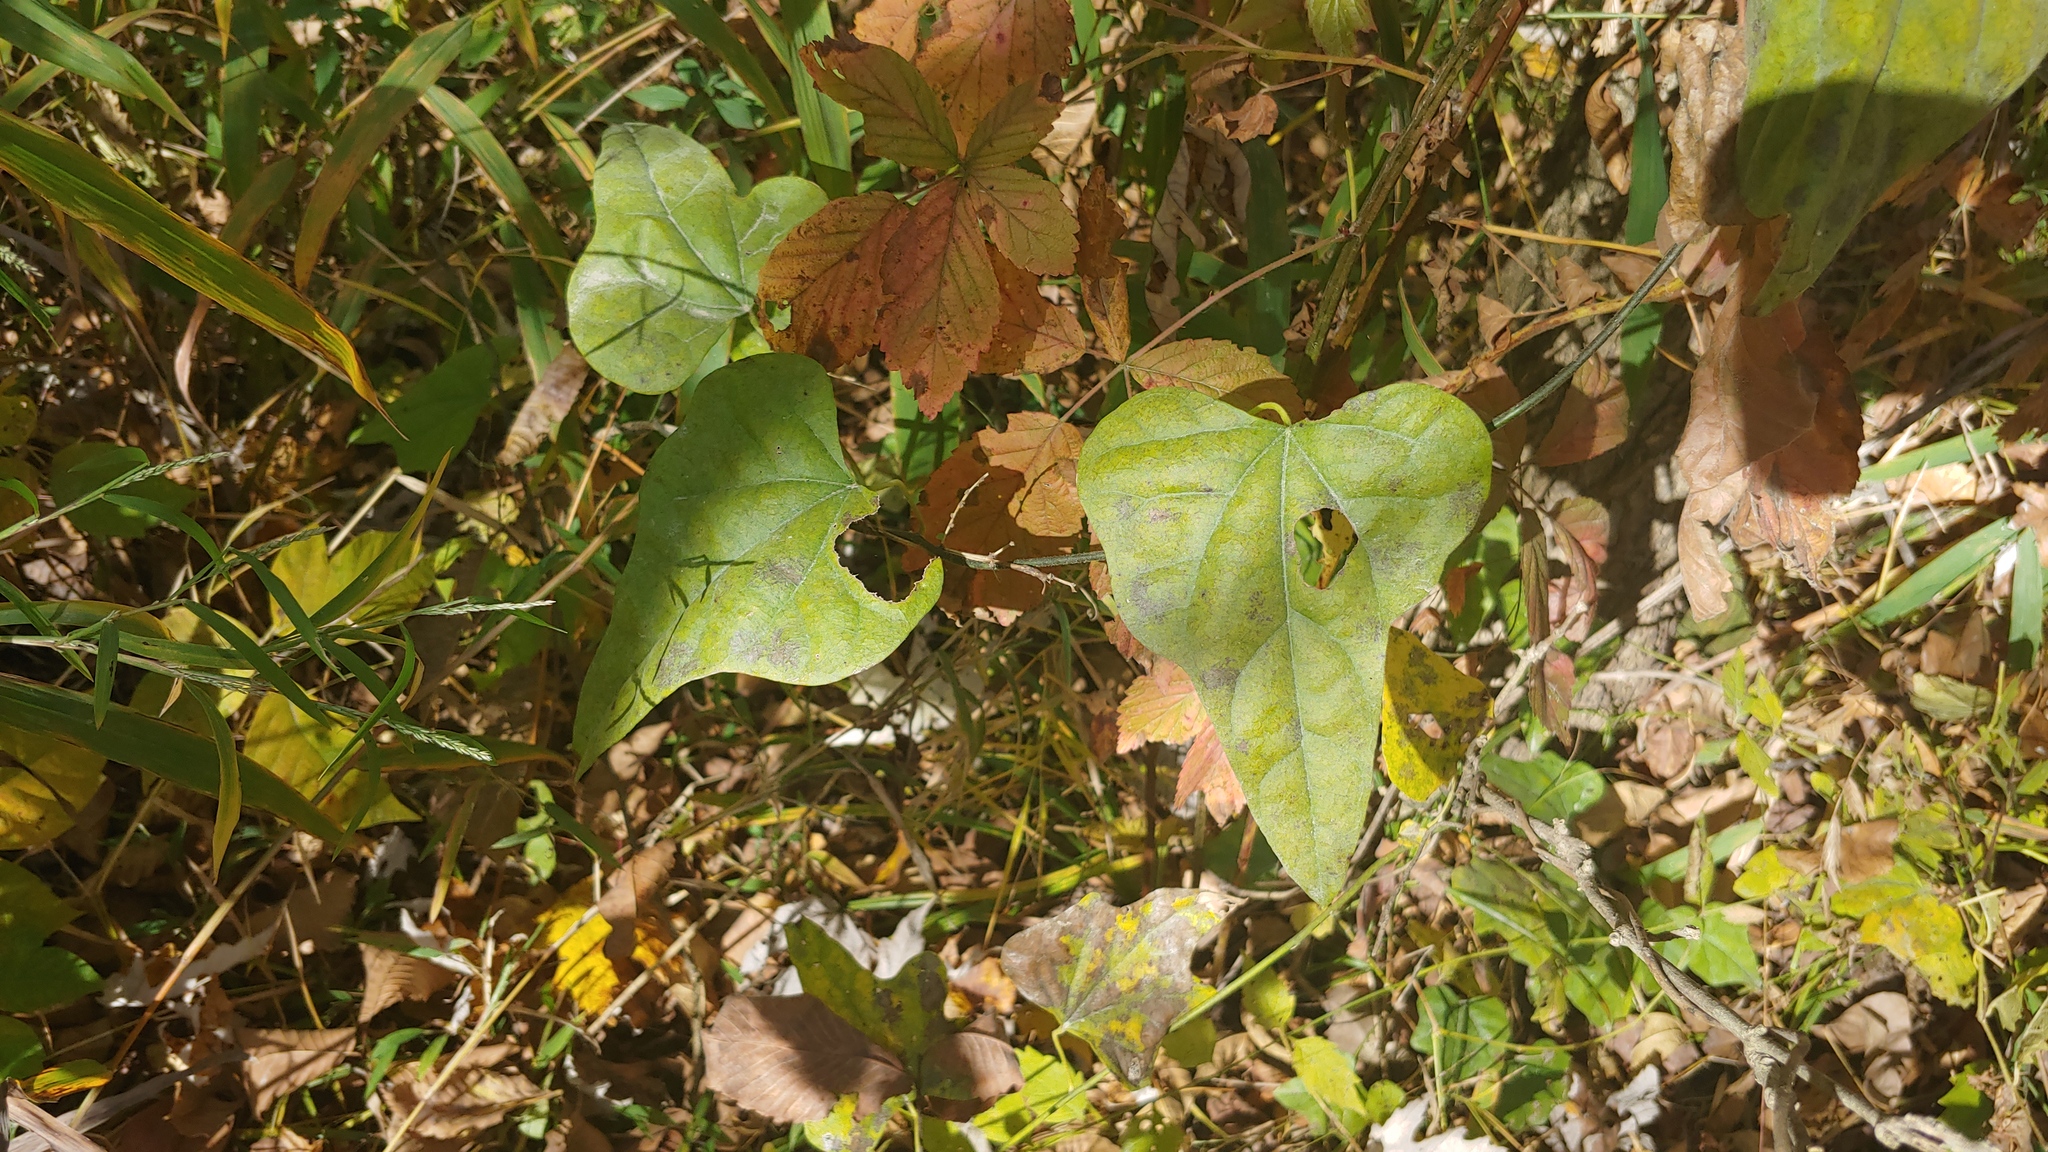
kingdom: Plantae
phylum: Tracheophyta
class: Magnoliopsida
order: Ranunculales
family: Menispermaceae
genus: Cocculus
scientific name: Cocculus carolinus
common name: Carolina moonseed
